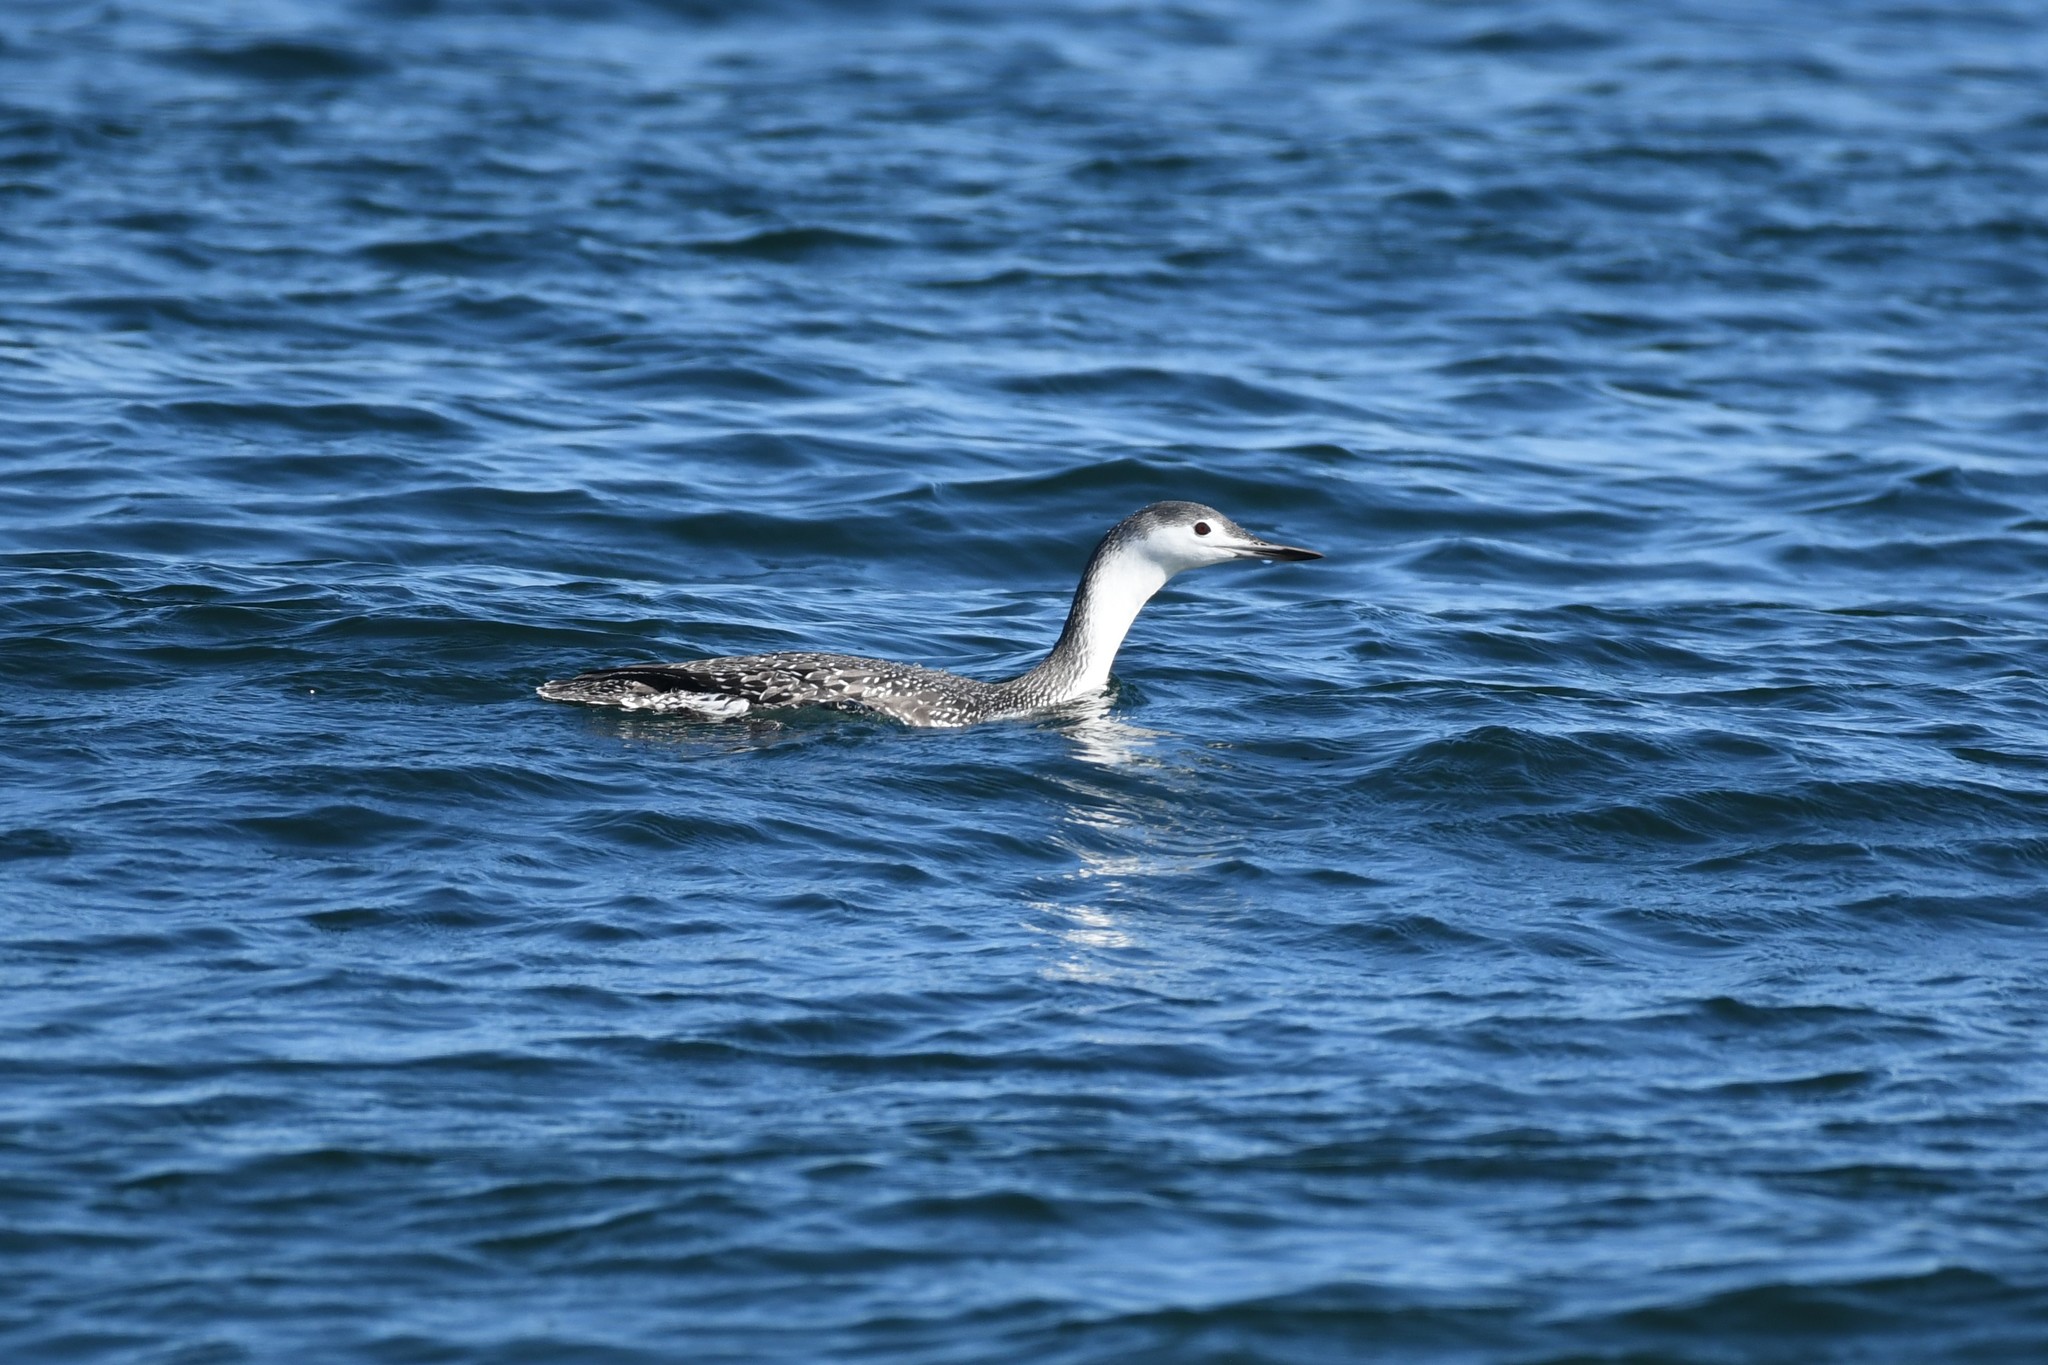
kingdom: Animalia
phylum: Chordata
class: Aves
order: Gaviiformes
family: Gaviidae
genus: Gavia
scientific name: Gavia stellata
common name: Red-throated loon
